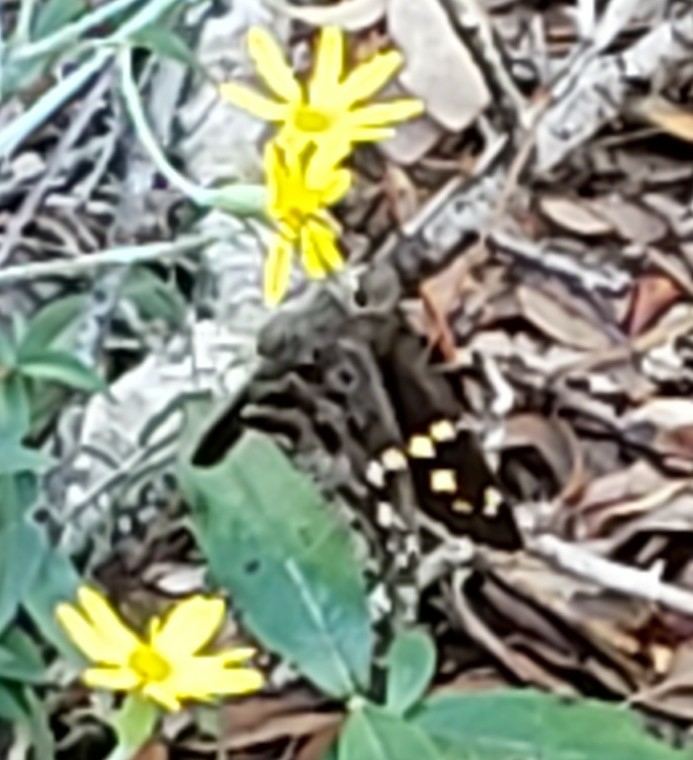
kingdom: Animalia
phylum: Arthropoda
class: Insecta
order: Lepidoptera
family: Hesperiidae
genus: Thorybes
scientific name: Thorybes
